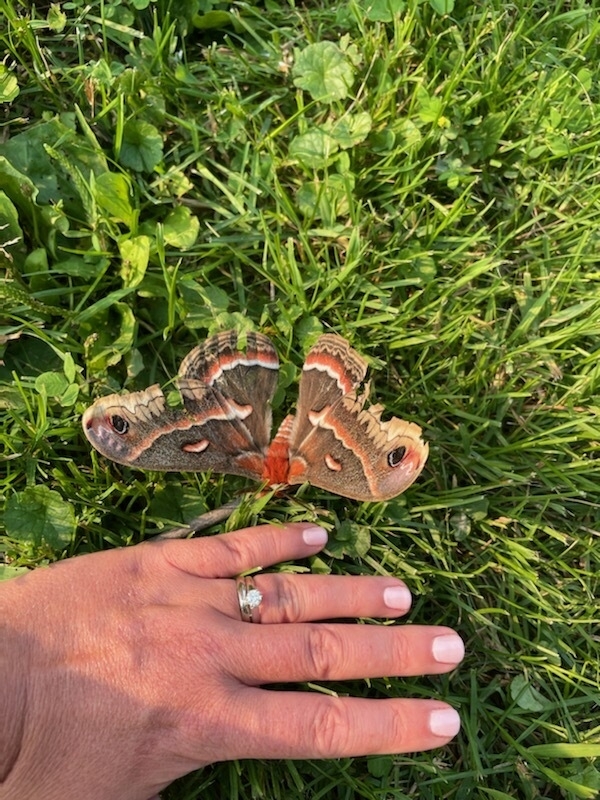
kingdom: Animalia
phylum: Arthropoda
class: Insecta
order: Lepidoptera
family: Saturniidae
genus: Hyalophora
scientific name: Hyalophora cecropia
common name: Cecropia silkmoth
